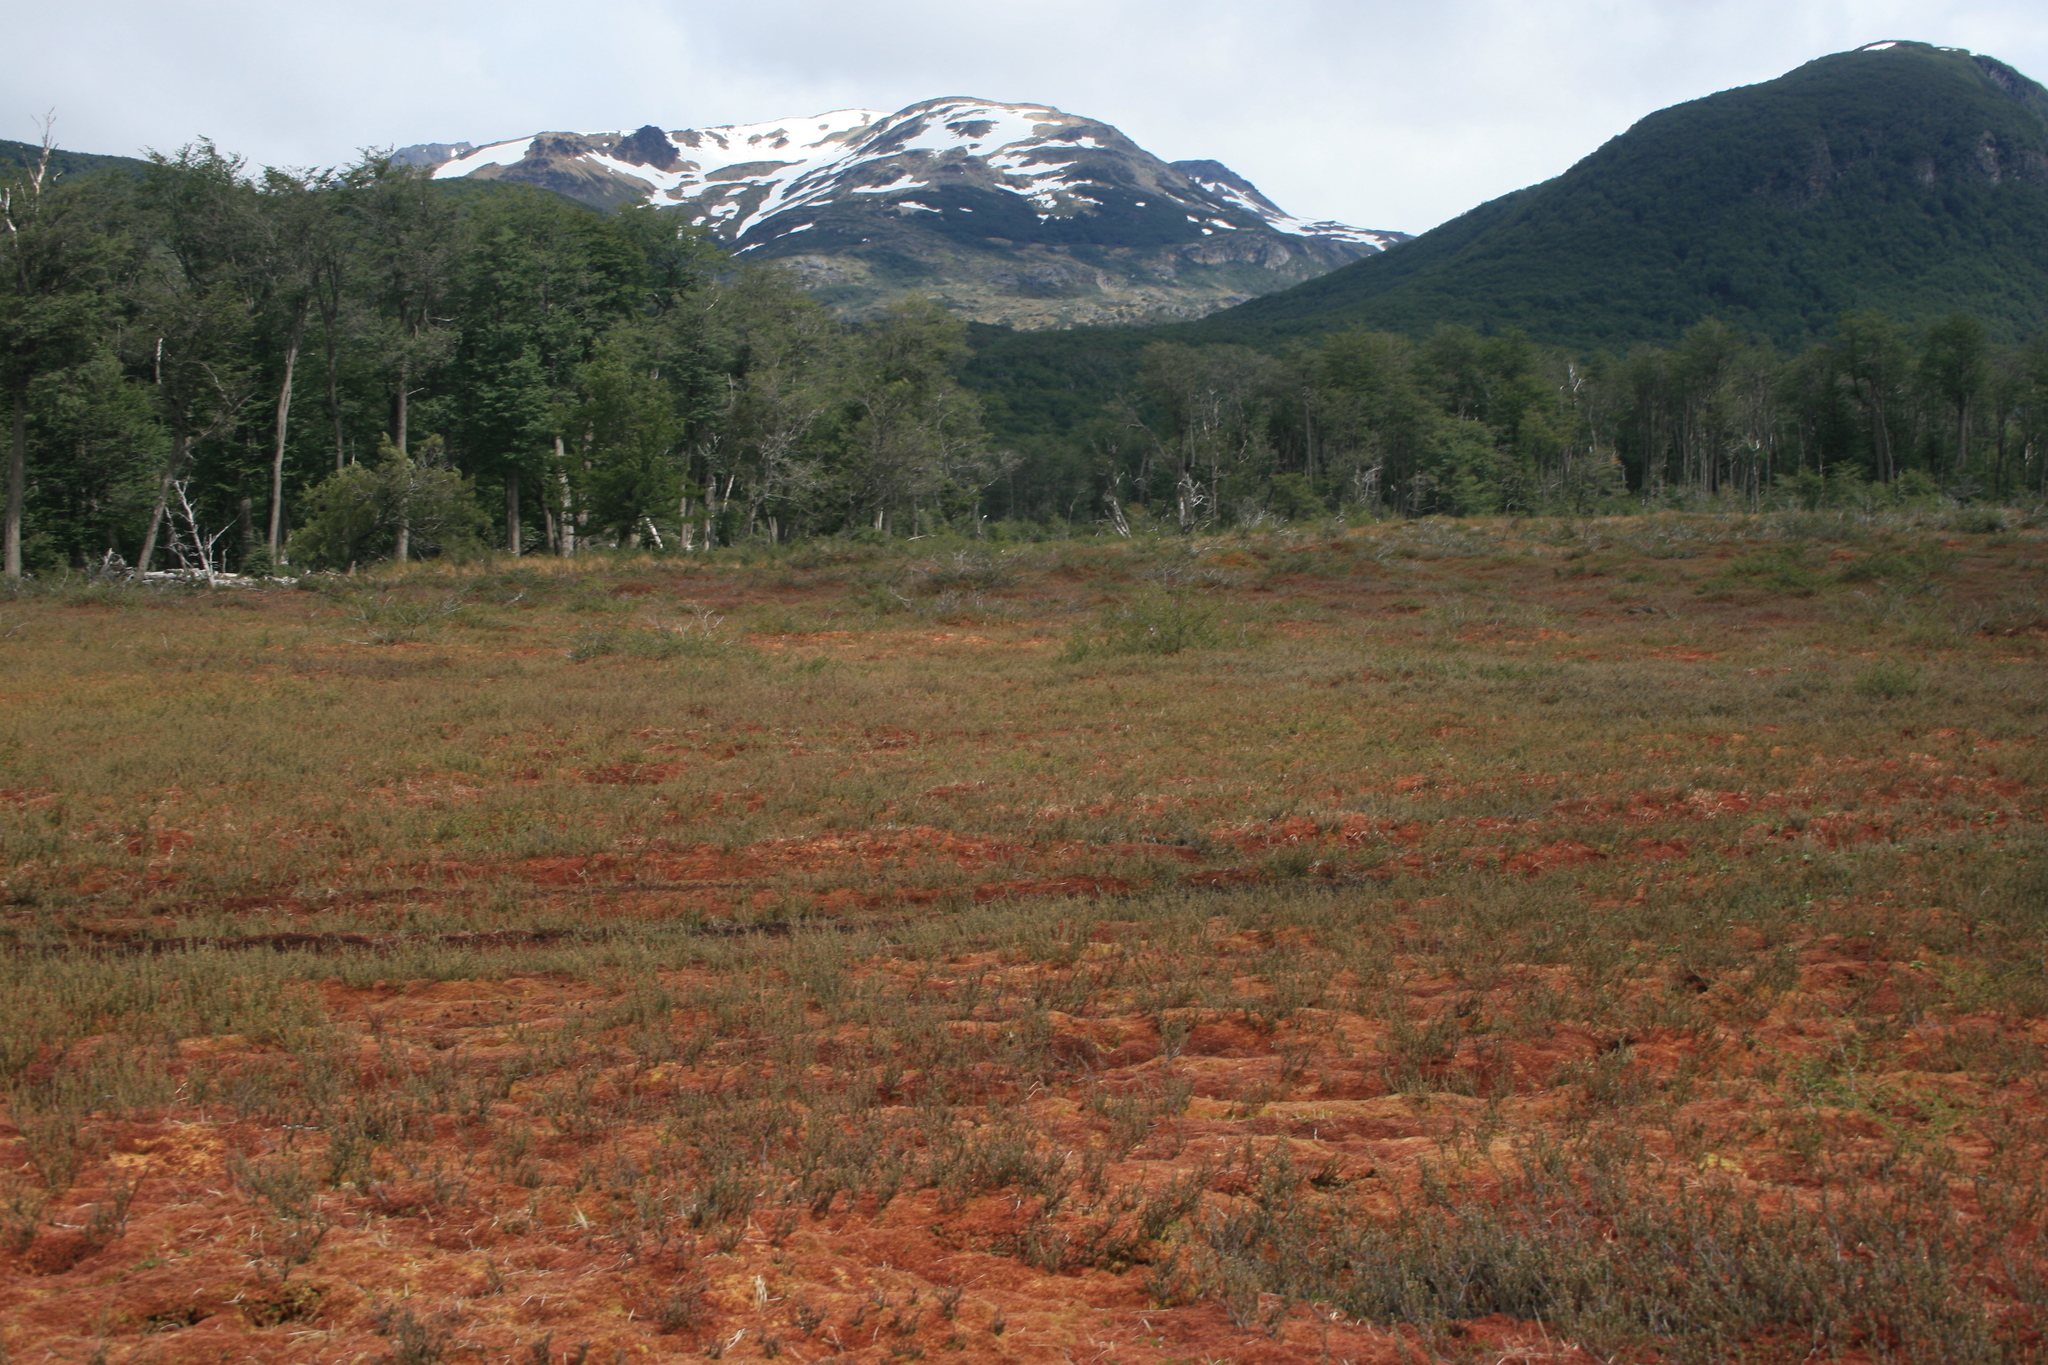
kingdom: Plantae
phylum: Bryophyta
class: Sphagnopsida
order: Sphagnales
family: Sphagnaceae
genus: Sphagnum
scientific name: Sphagnum magellanicum
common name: Magellan's peat moss
